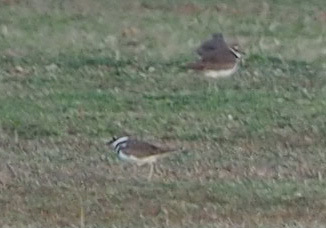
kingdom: Animalia
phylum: Chordata
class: Aves
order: Charadriiformes
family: Charadriidae
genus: Charadrius
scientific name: Charadrius vociferus
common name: Killdeer
